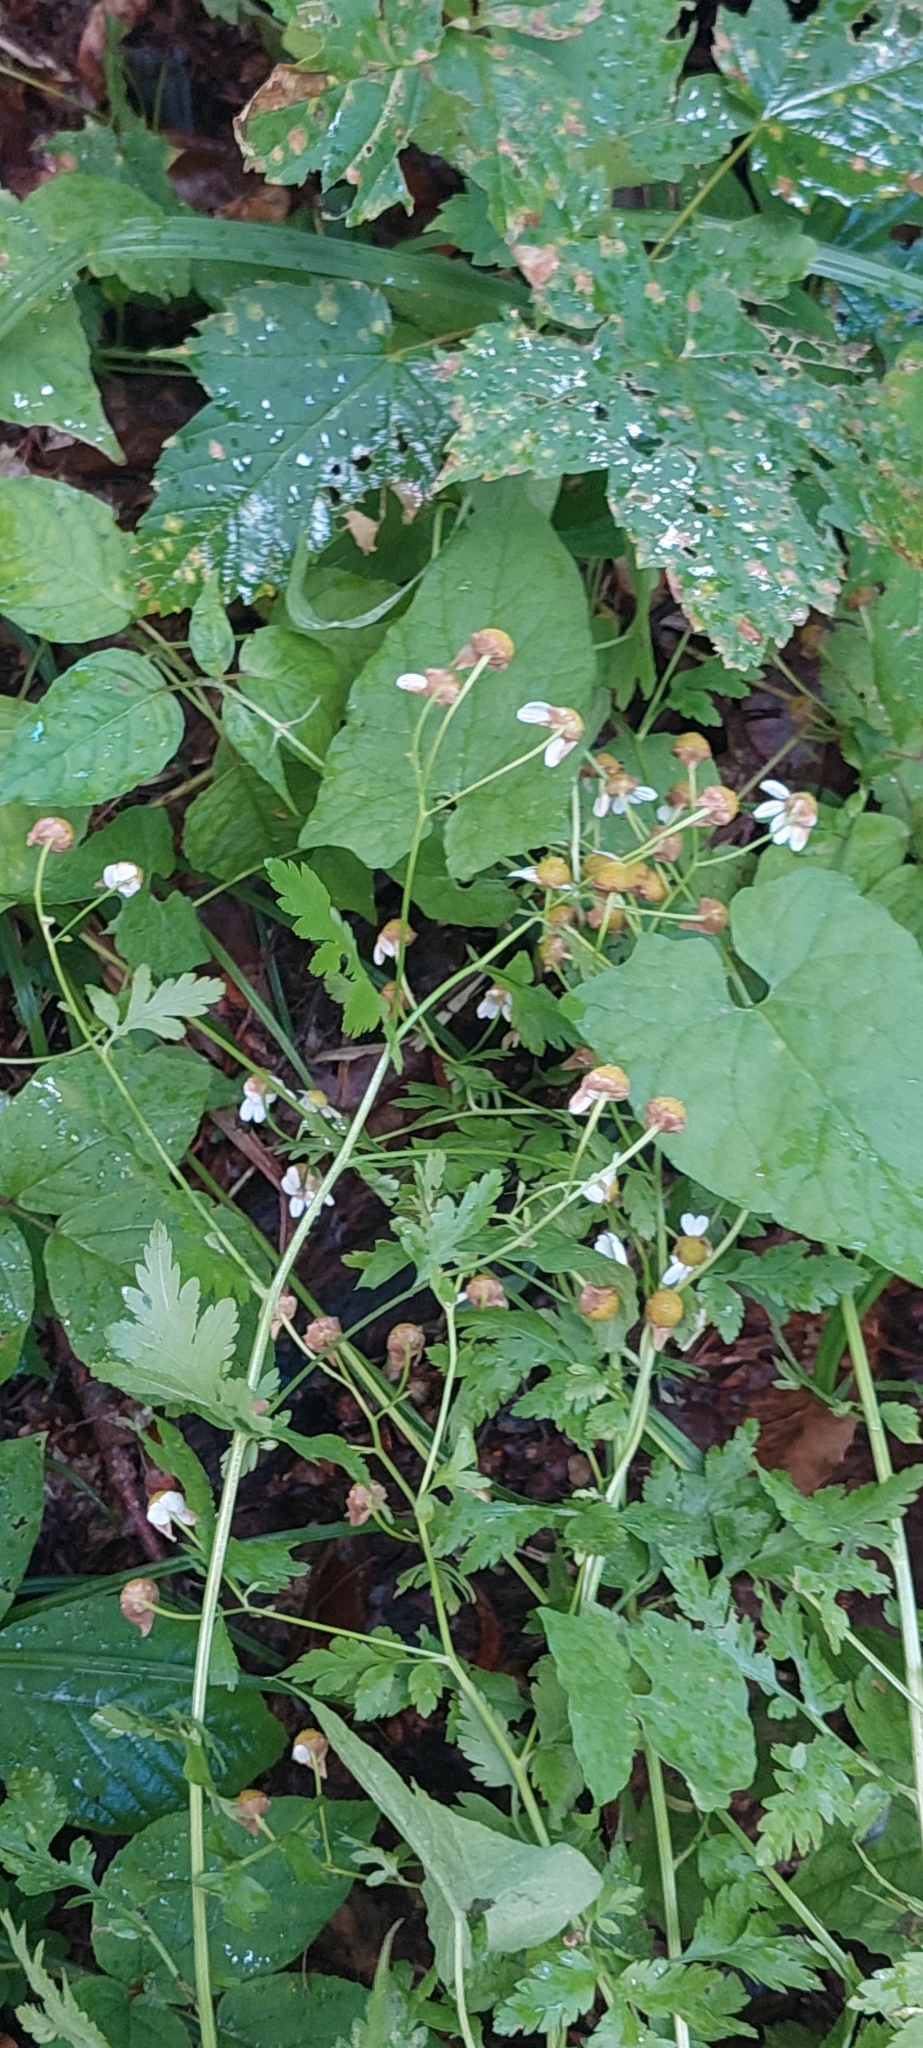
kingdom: Plantae
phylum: Tracheophyta
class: Magnoliopsida
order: Asterales
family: Asteraceae
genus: Tanacetum
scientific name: Tanacetum partheniifolium
